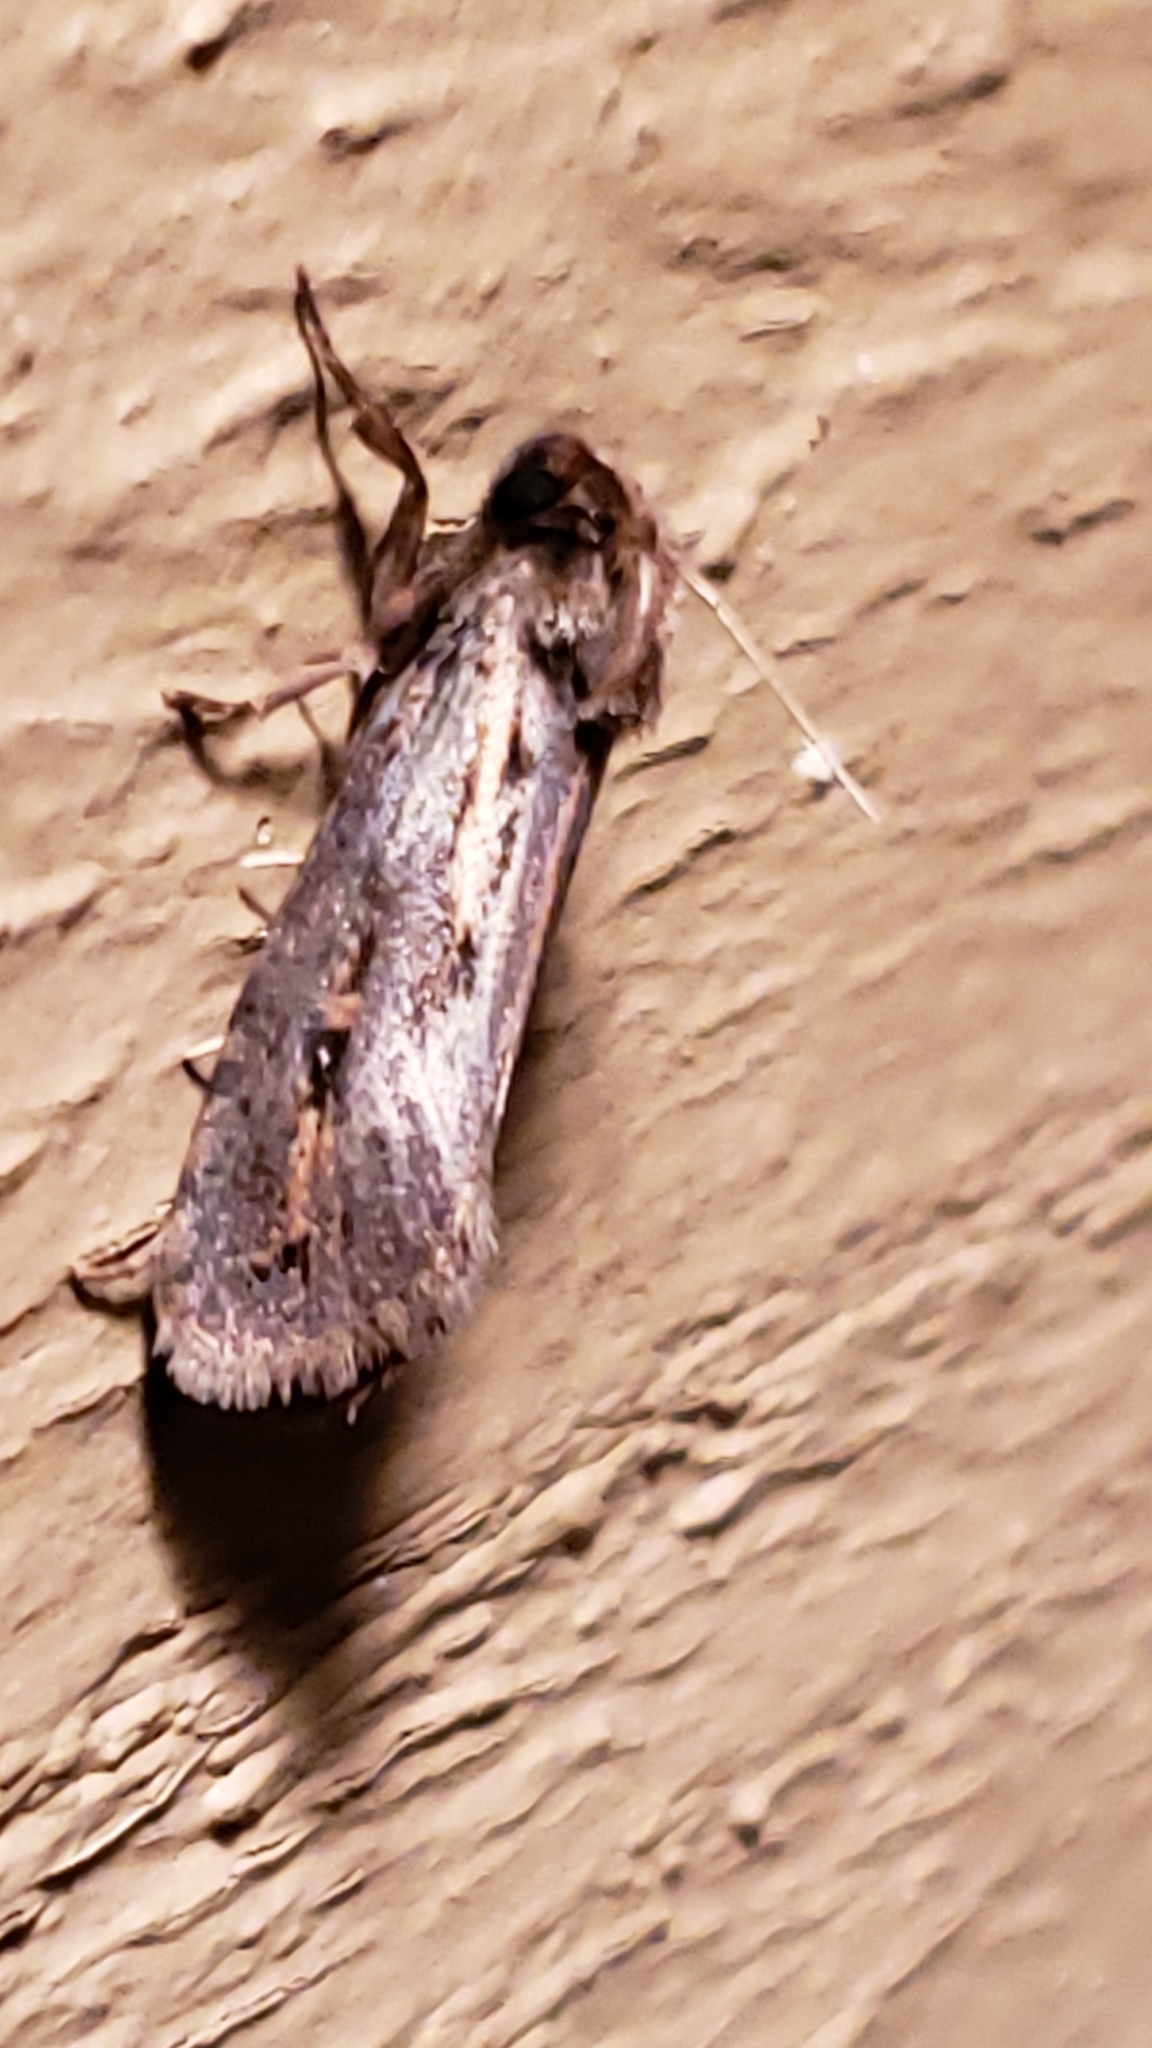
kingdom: Animalia
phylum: Arthropoda
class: Insecta
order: Lepidoptera
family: Tineidae
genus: Acrolophus
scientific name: Acrolophus popeanella
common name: Clemens' grass tubeworm moth
